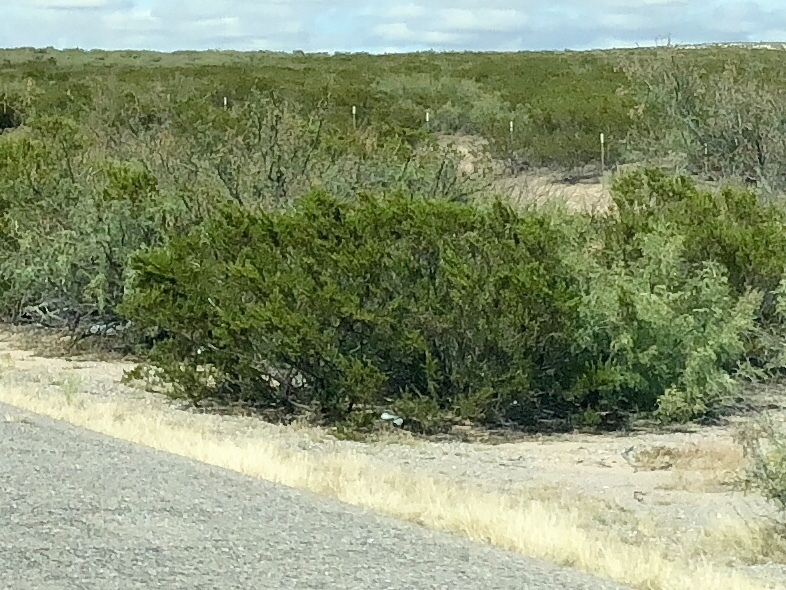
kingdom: Plantae
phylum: Tracheophyta
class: Magnoliopsida
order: Zygophyllales
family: Zygophyllaceae
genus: Larrea
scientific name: Larrea tridentata
